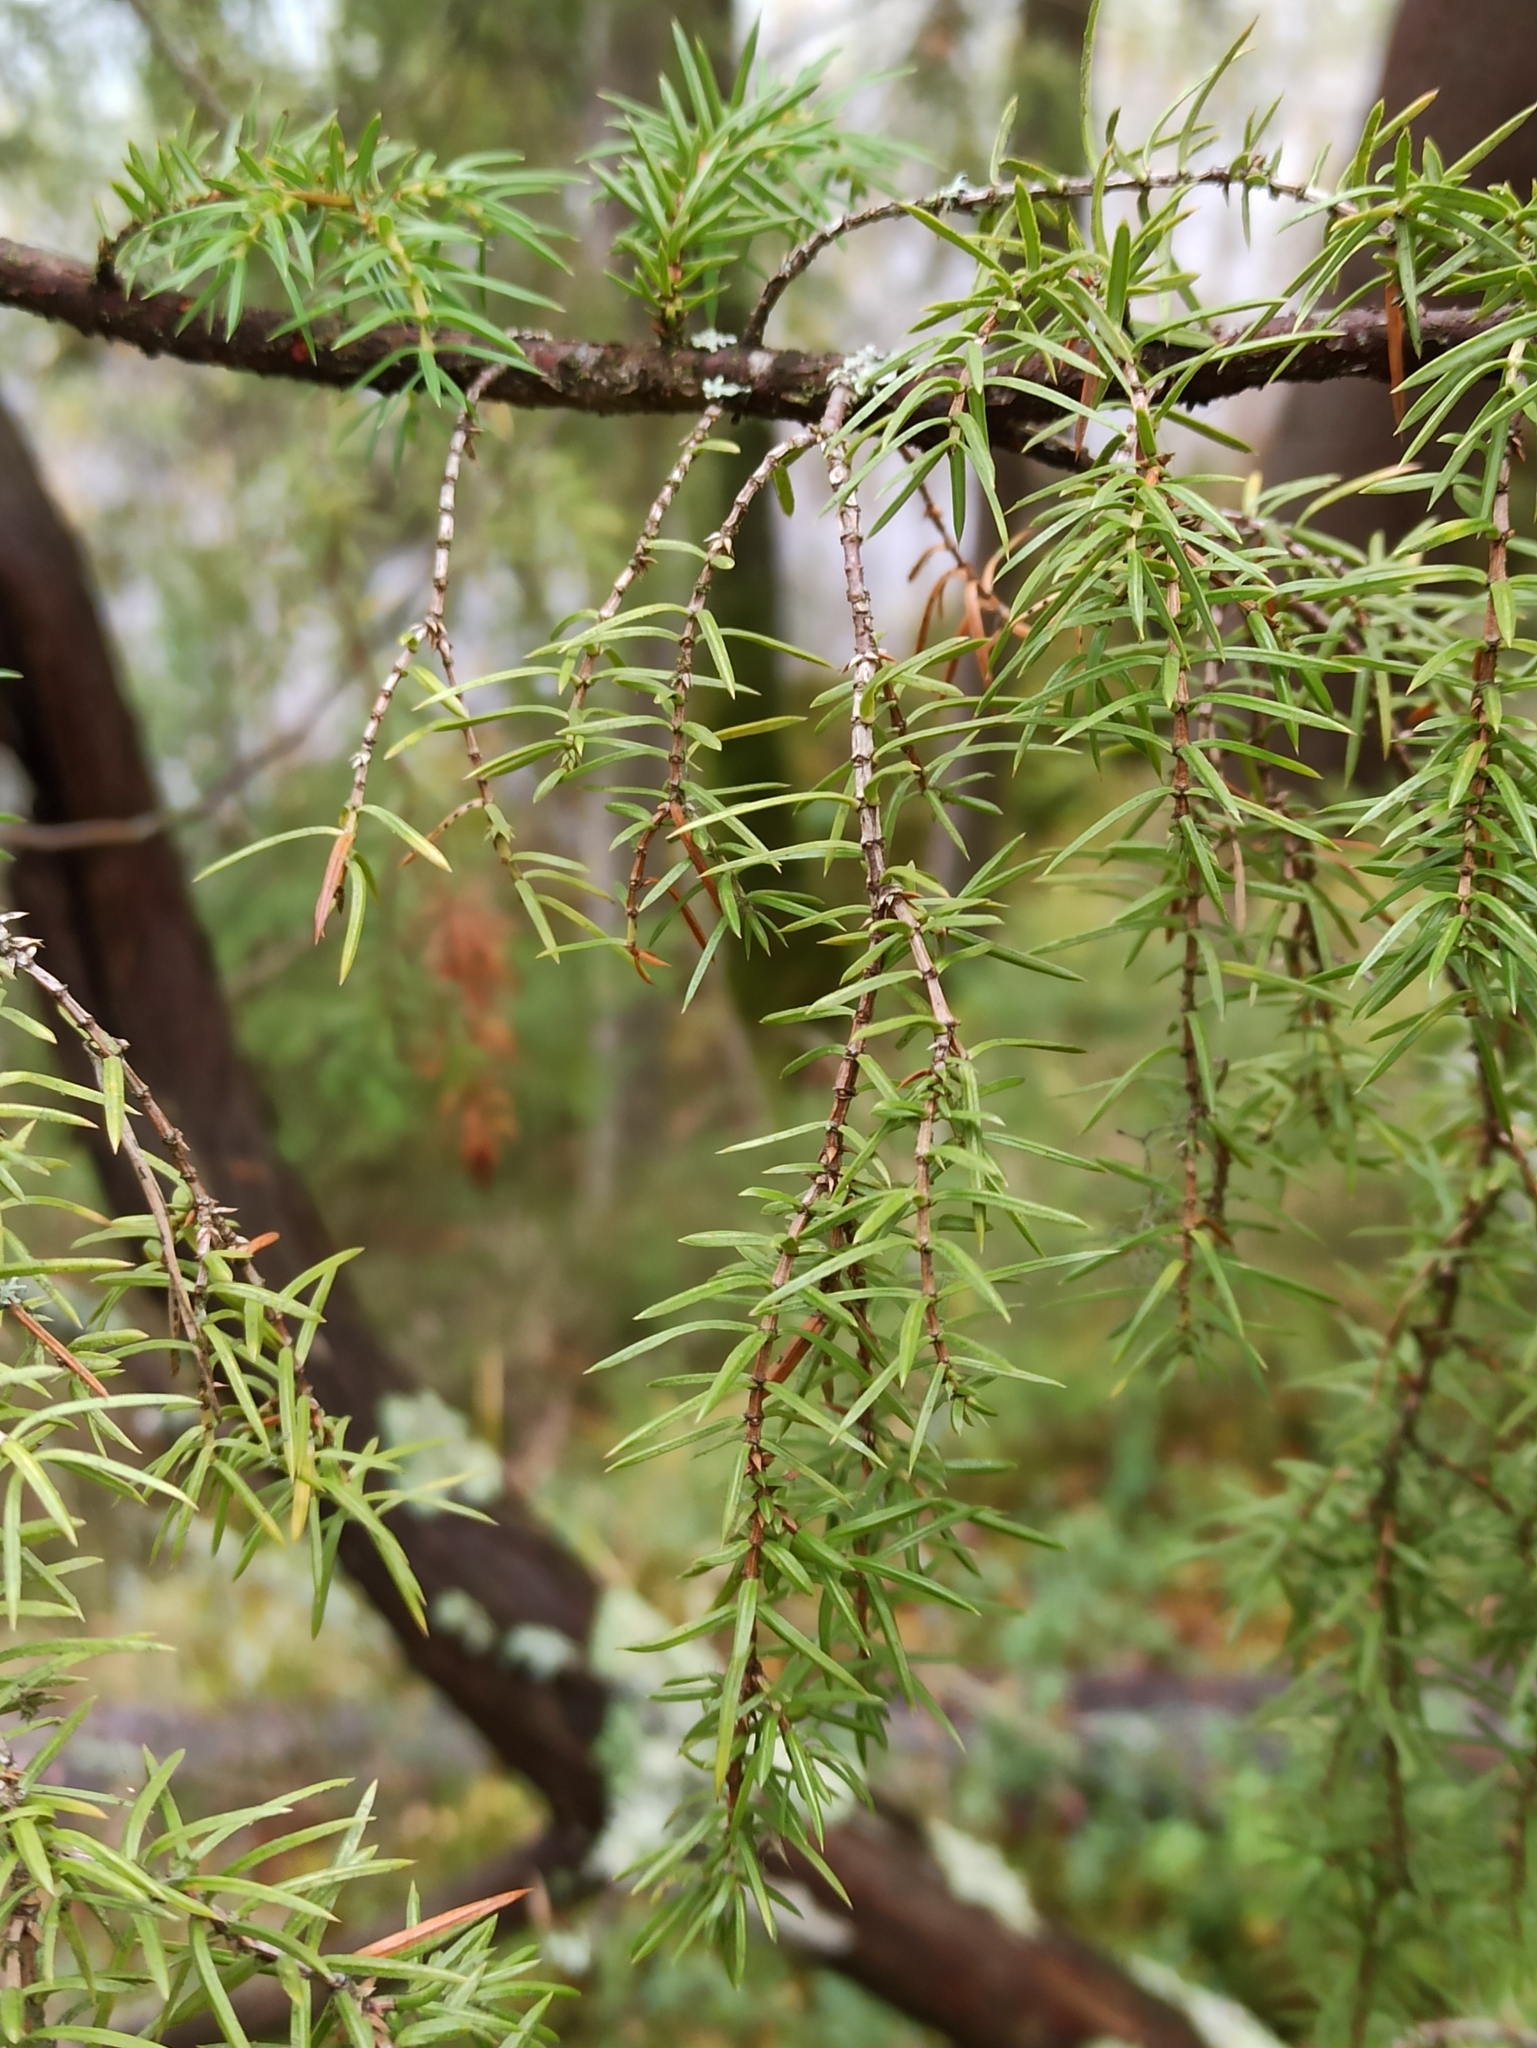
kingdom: Plantae
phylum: Tracheophyta
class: Pinopsida
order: Pinales
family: Cupressaceae
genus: Juniperus
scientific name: Juniperus communis
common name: Common juniper
